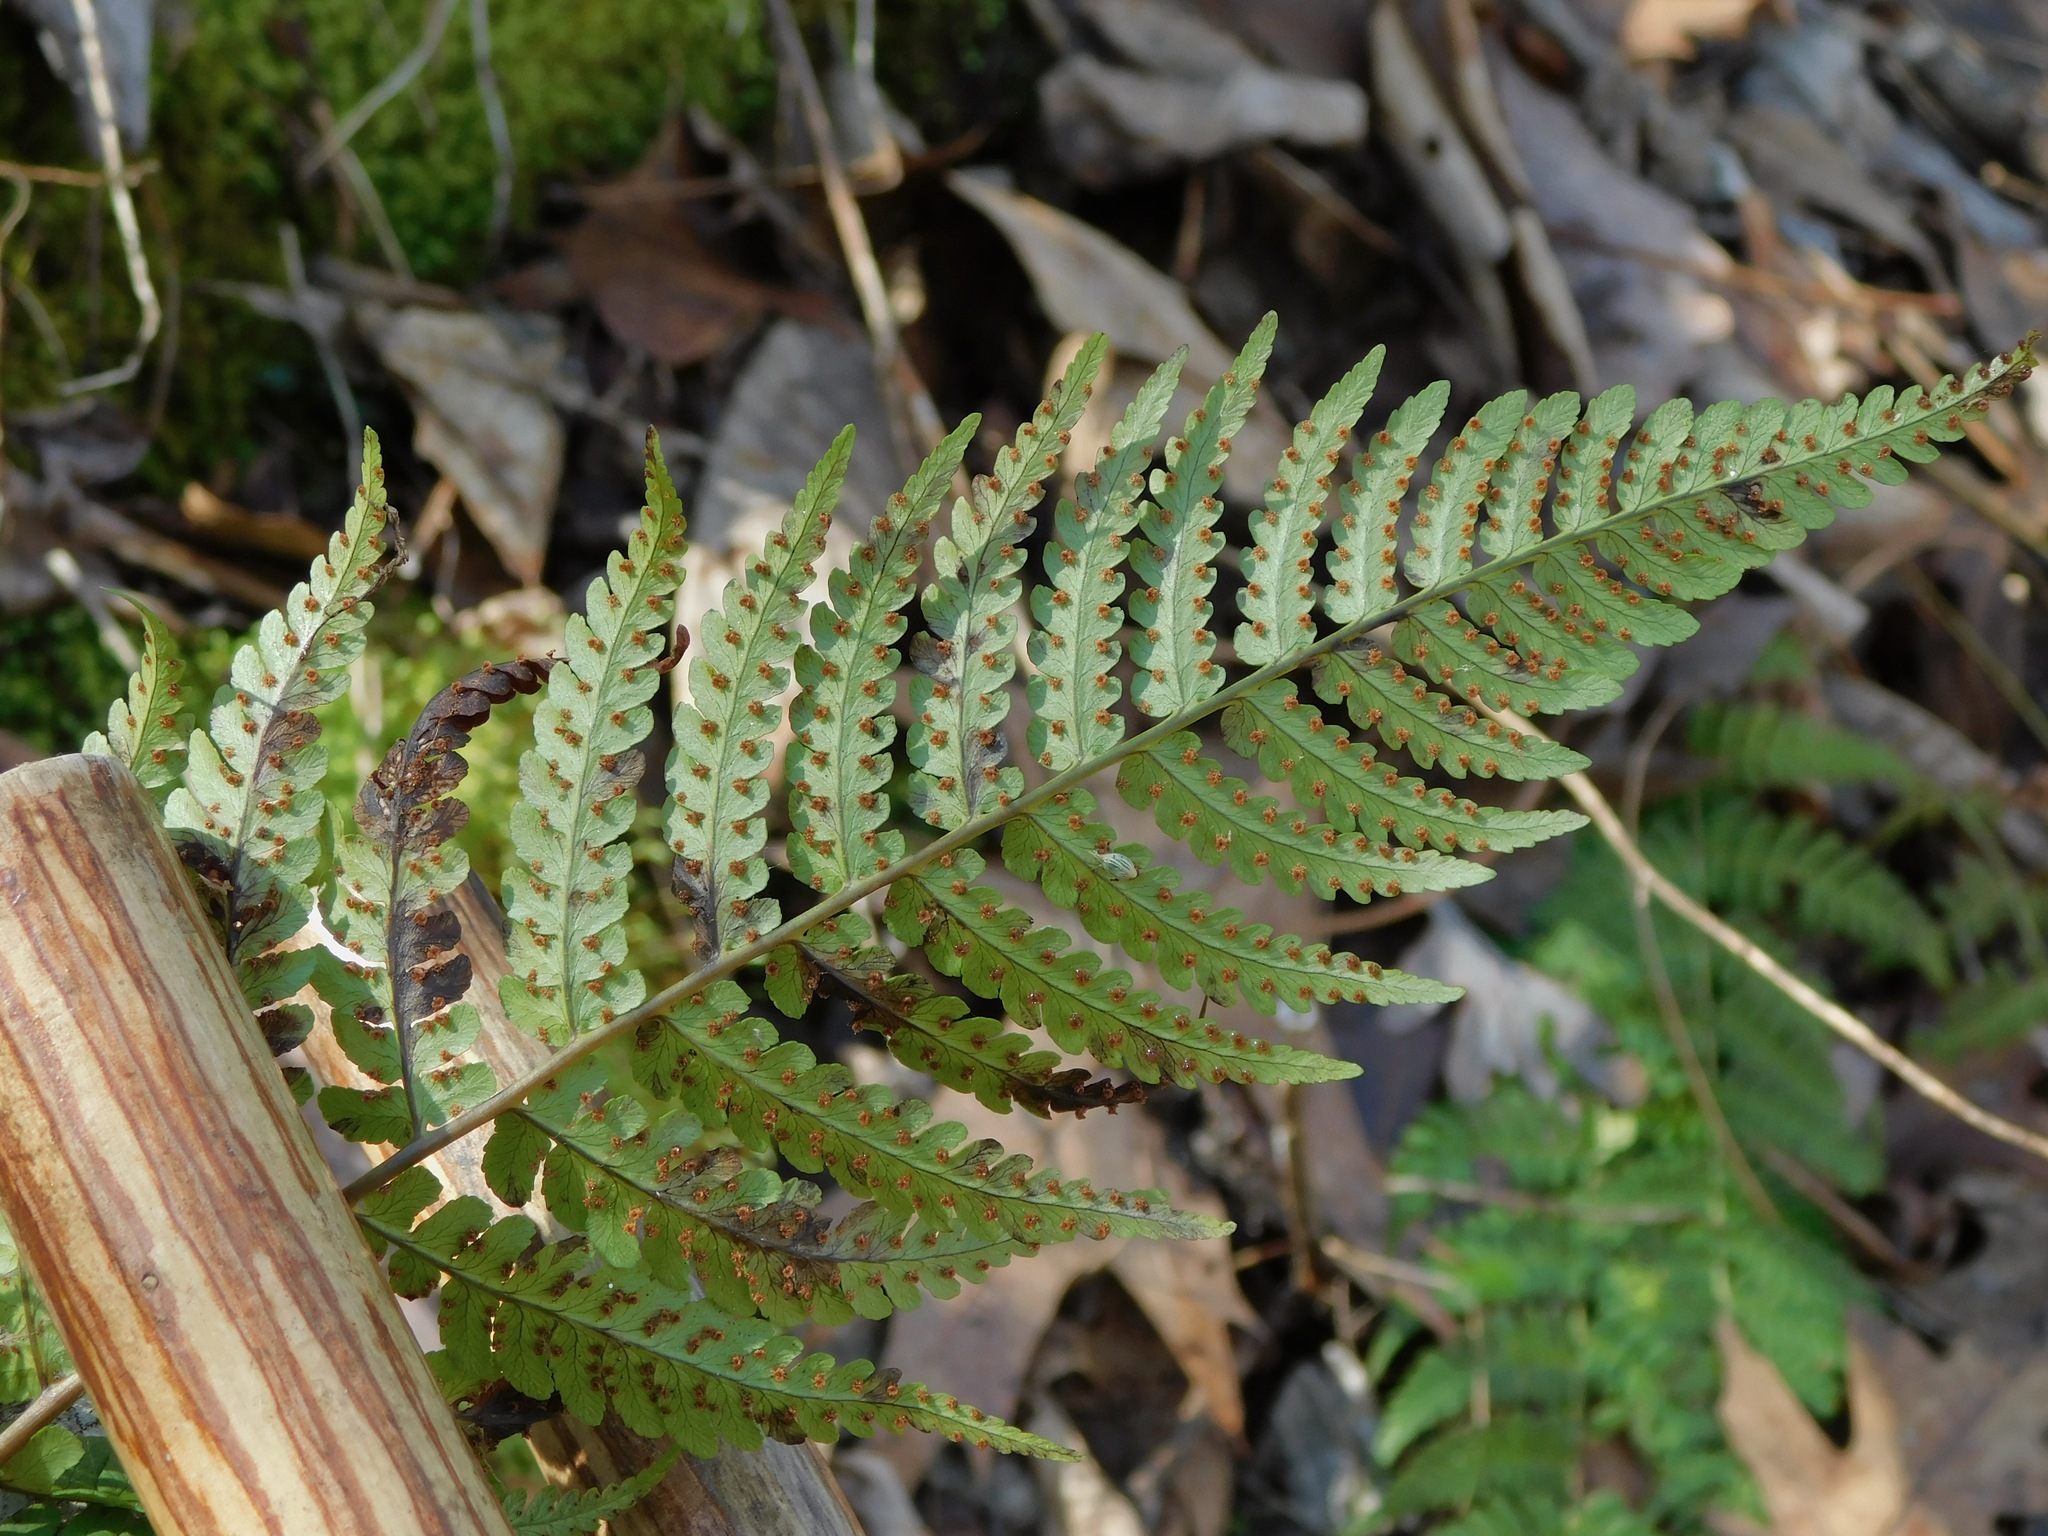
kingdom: Plantae
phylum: Tracheophyta
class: Polypodiopsida
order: Polypodiales
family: Dryopteridaceae
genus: Dryopteris
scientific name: Dryopteris marginalis
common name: Marginal wood fern
